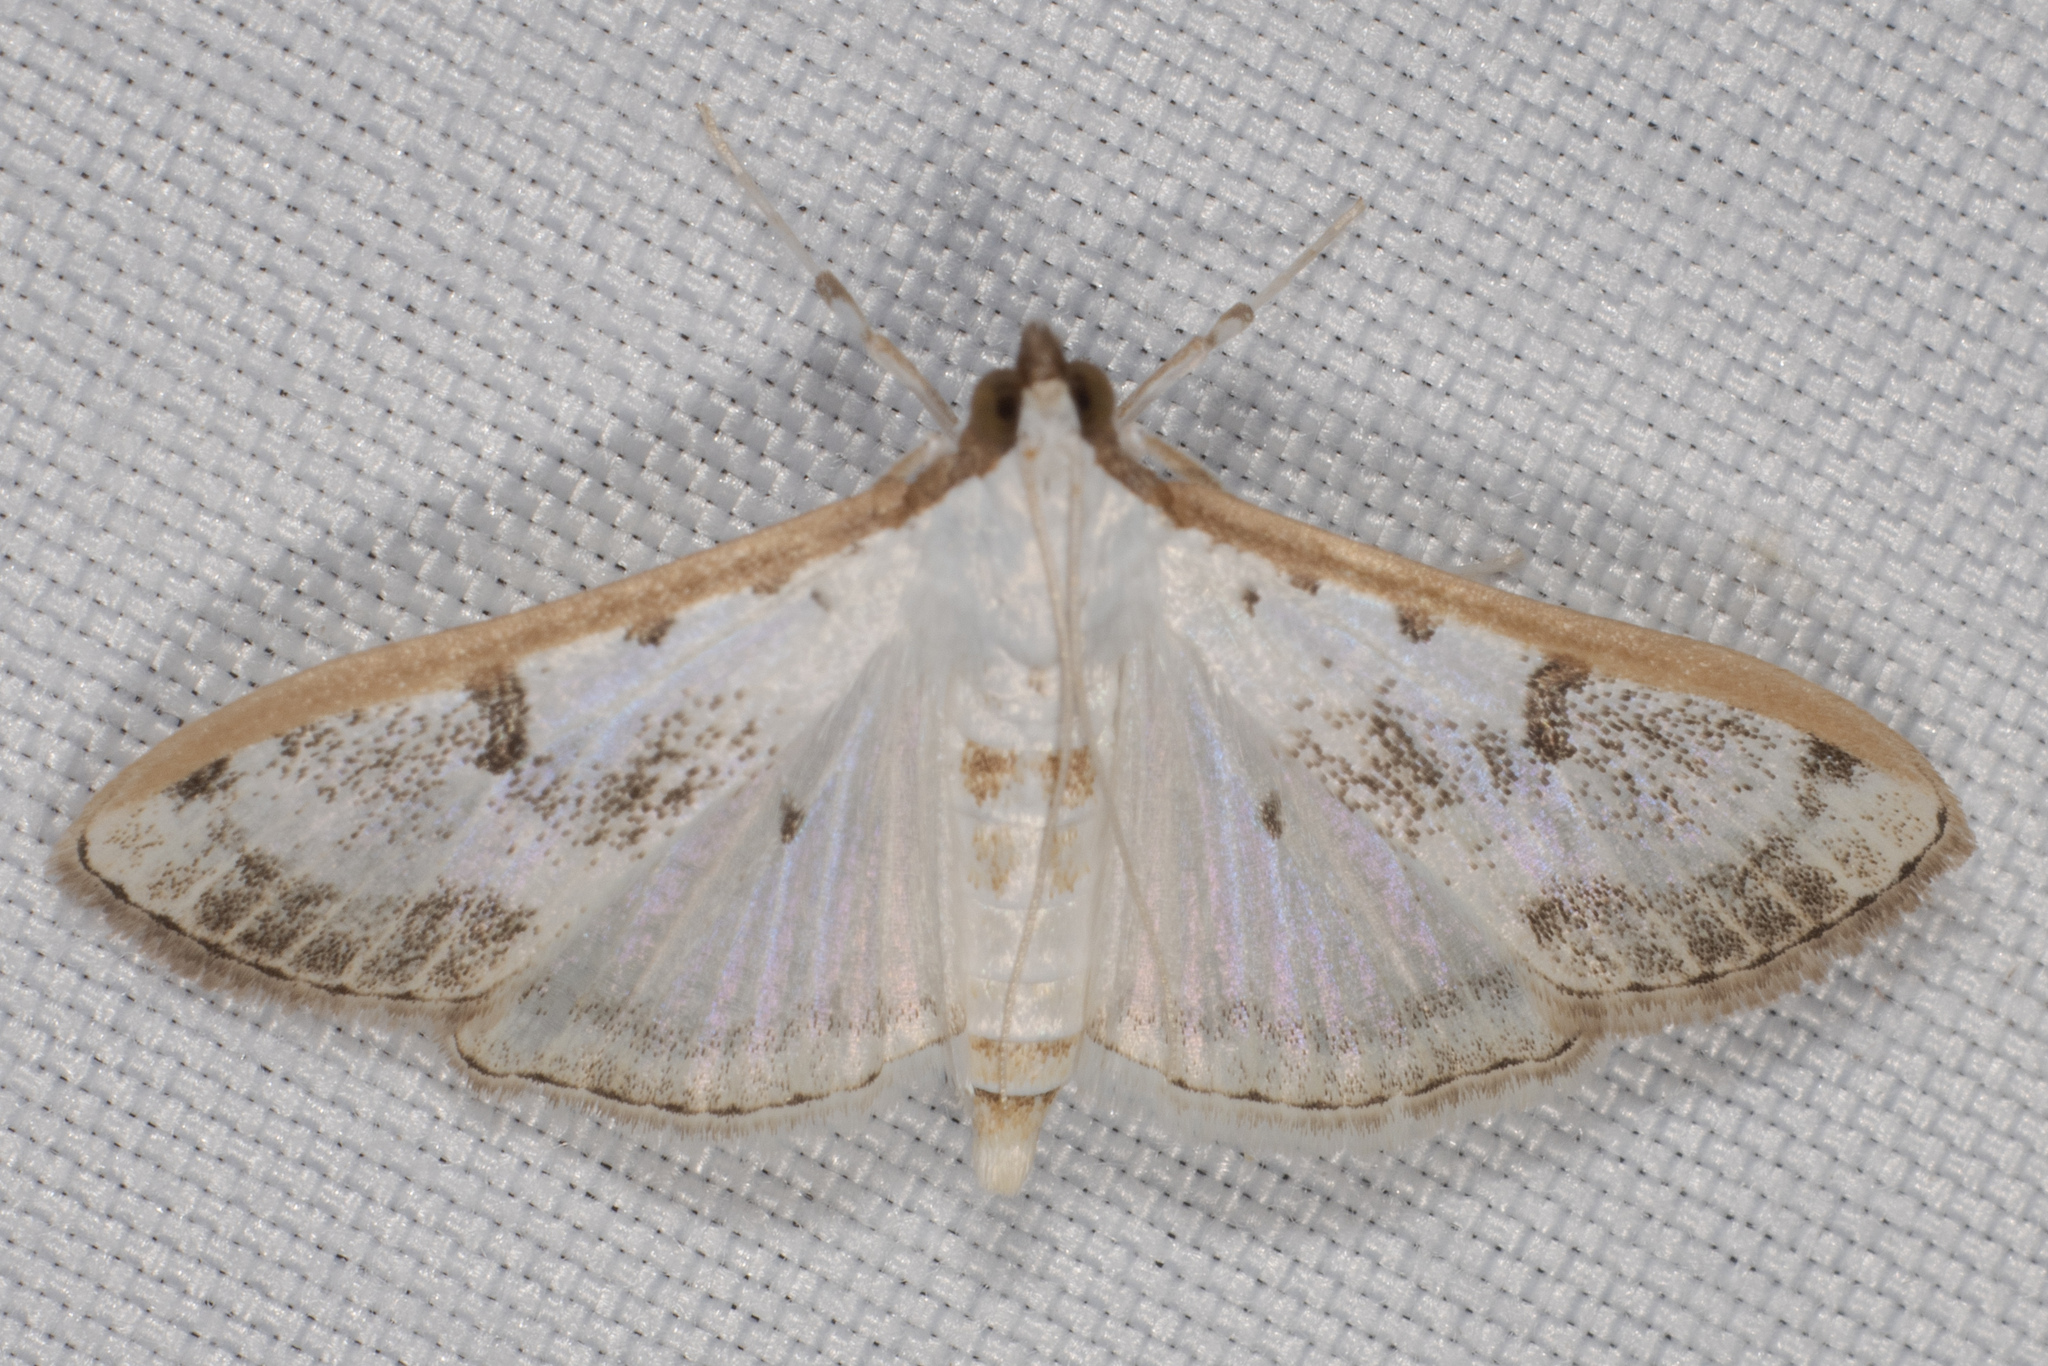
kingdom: Animalia
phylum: Arthropoda
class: Insecta
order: Lepidoptera
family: Crambidae
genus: Palpita
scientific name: Palpita gracilalis
